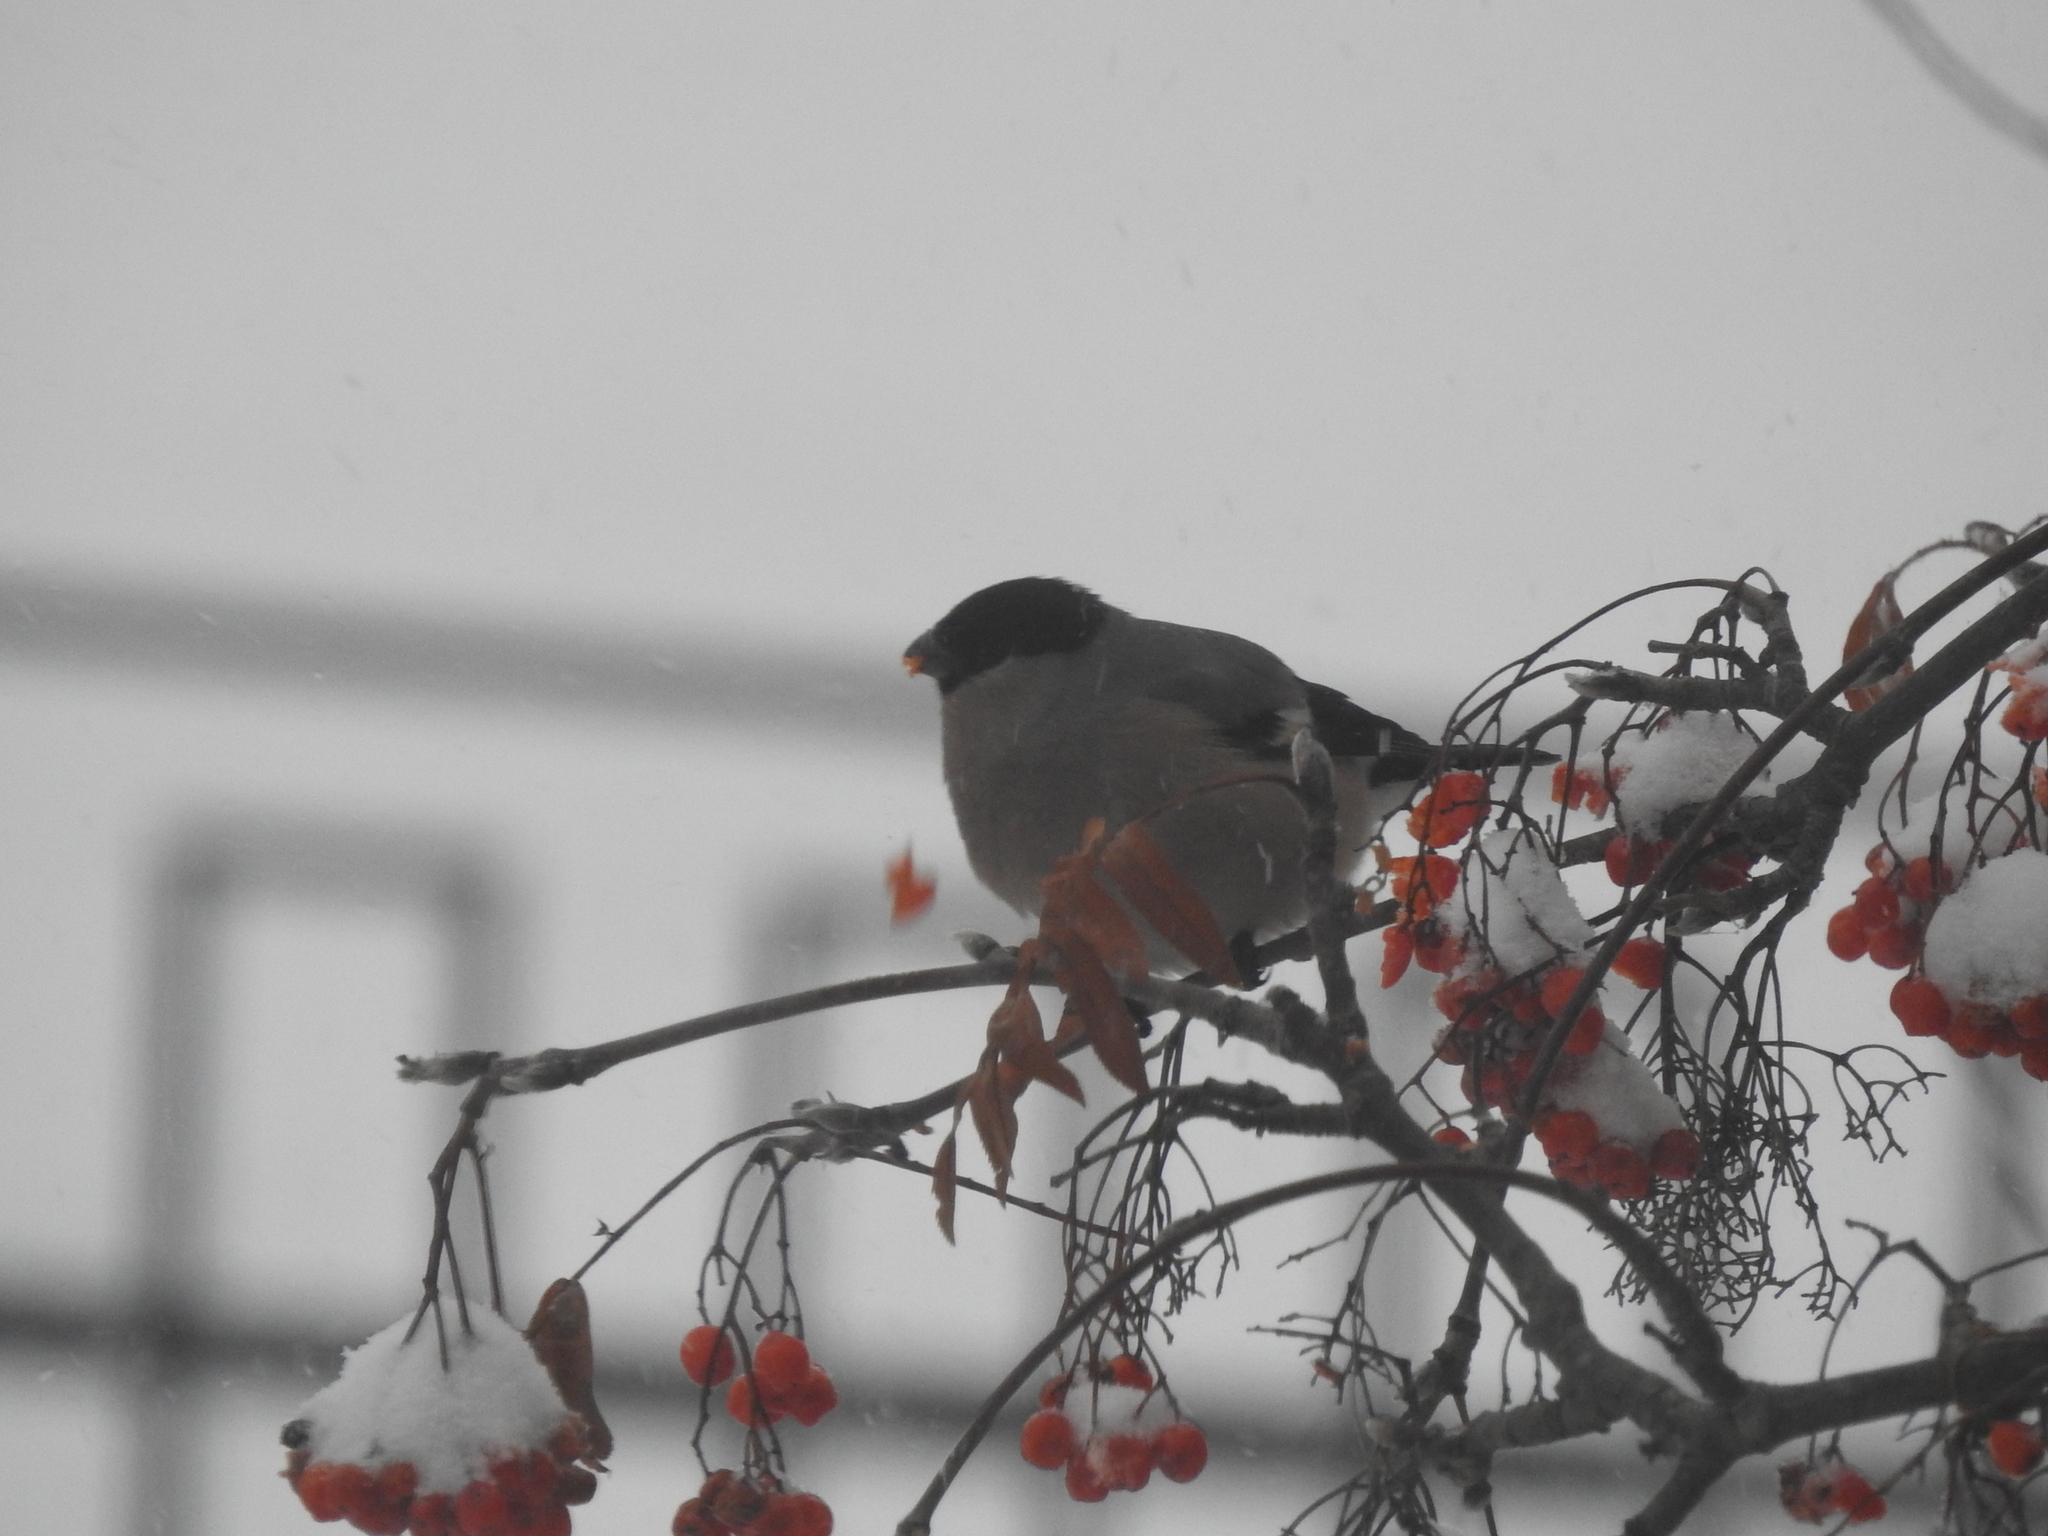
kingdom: Animalia
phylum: Chordata
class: Aves
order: Passeriformes
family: Fringillidae
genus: Pyrrhula
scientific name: Pyrrhula pyrrhula
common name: Eurasian bullfinch
